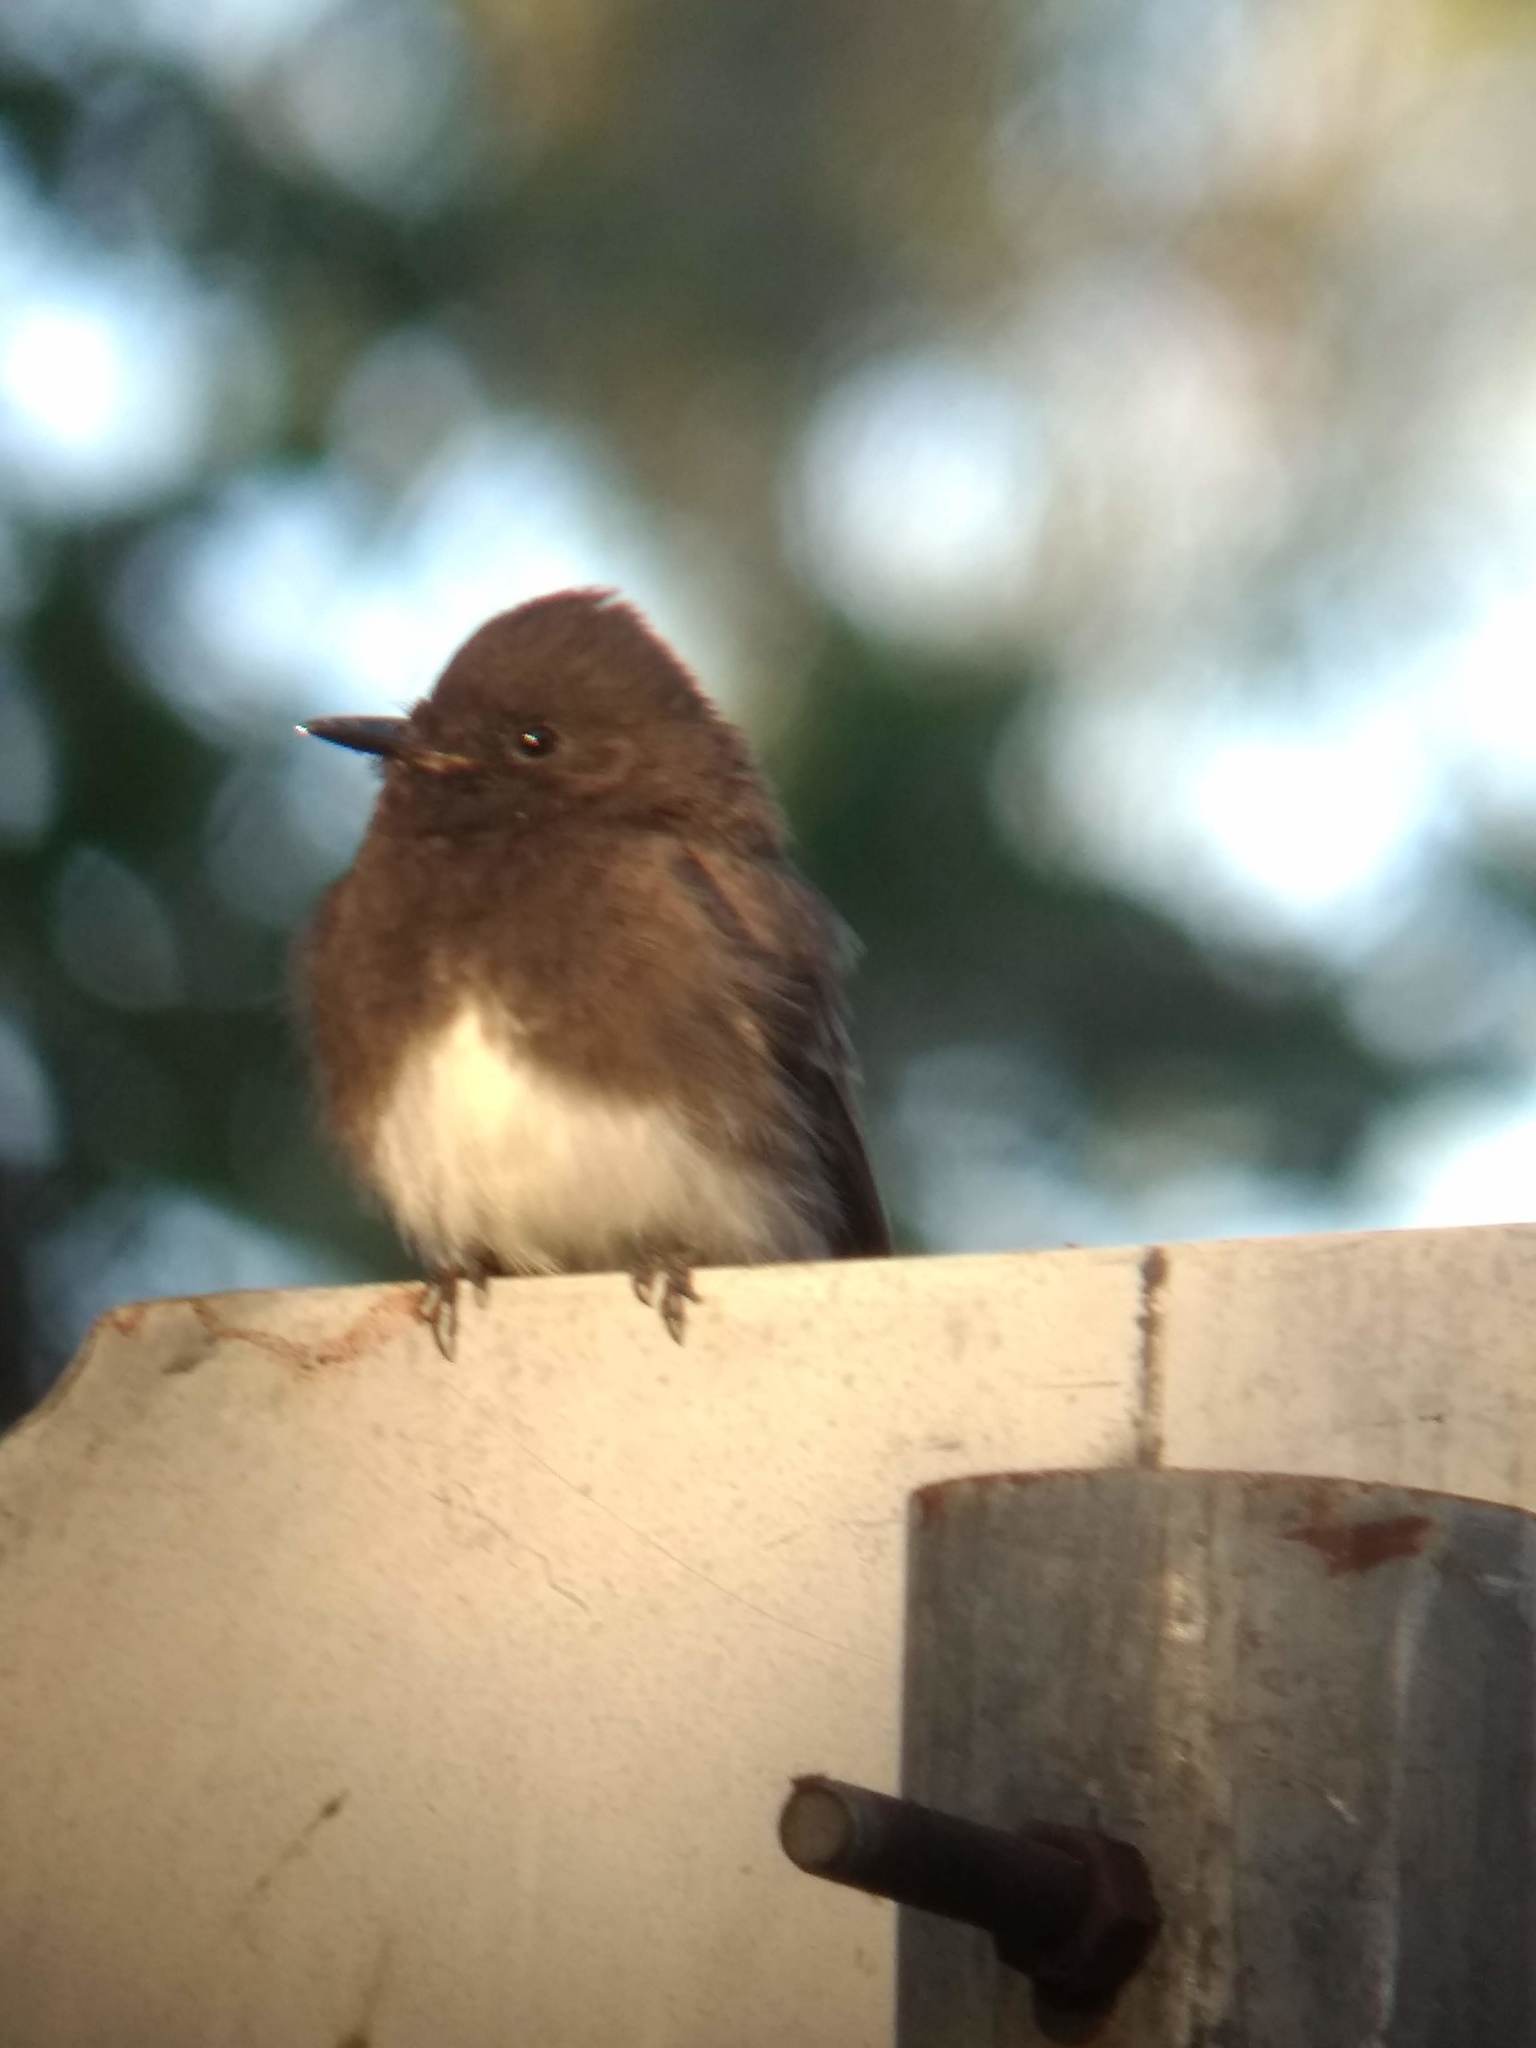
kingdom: Animalia
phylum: Chordata
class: Aves
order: Passeriformes
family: Tyrannidae
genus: Sayornis
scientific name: Sayornis nigricans
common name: Black phoebe
